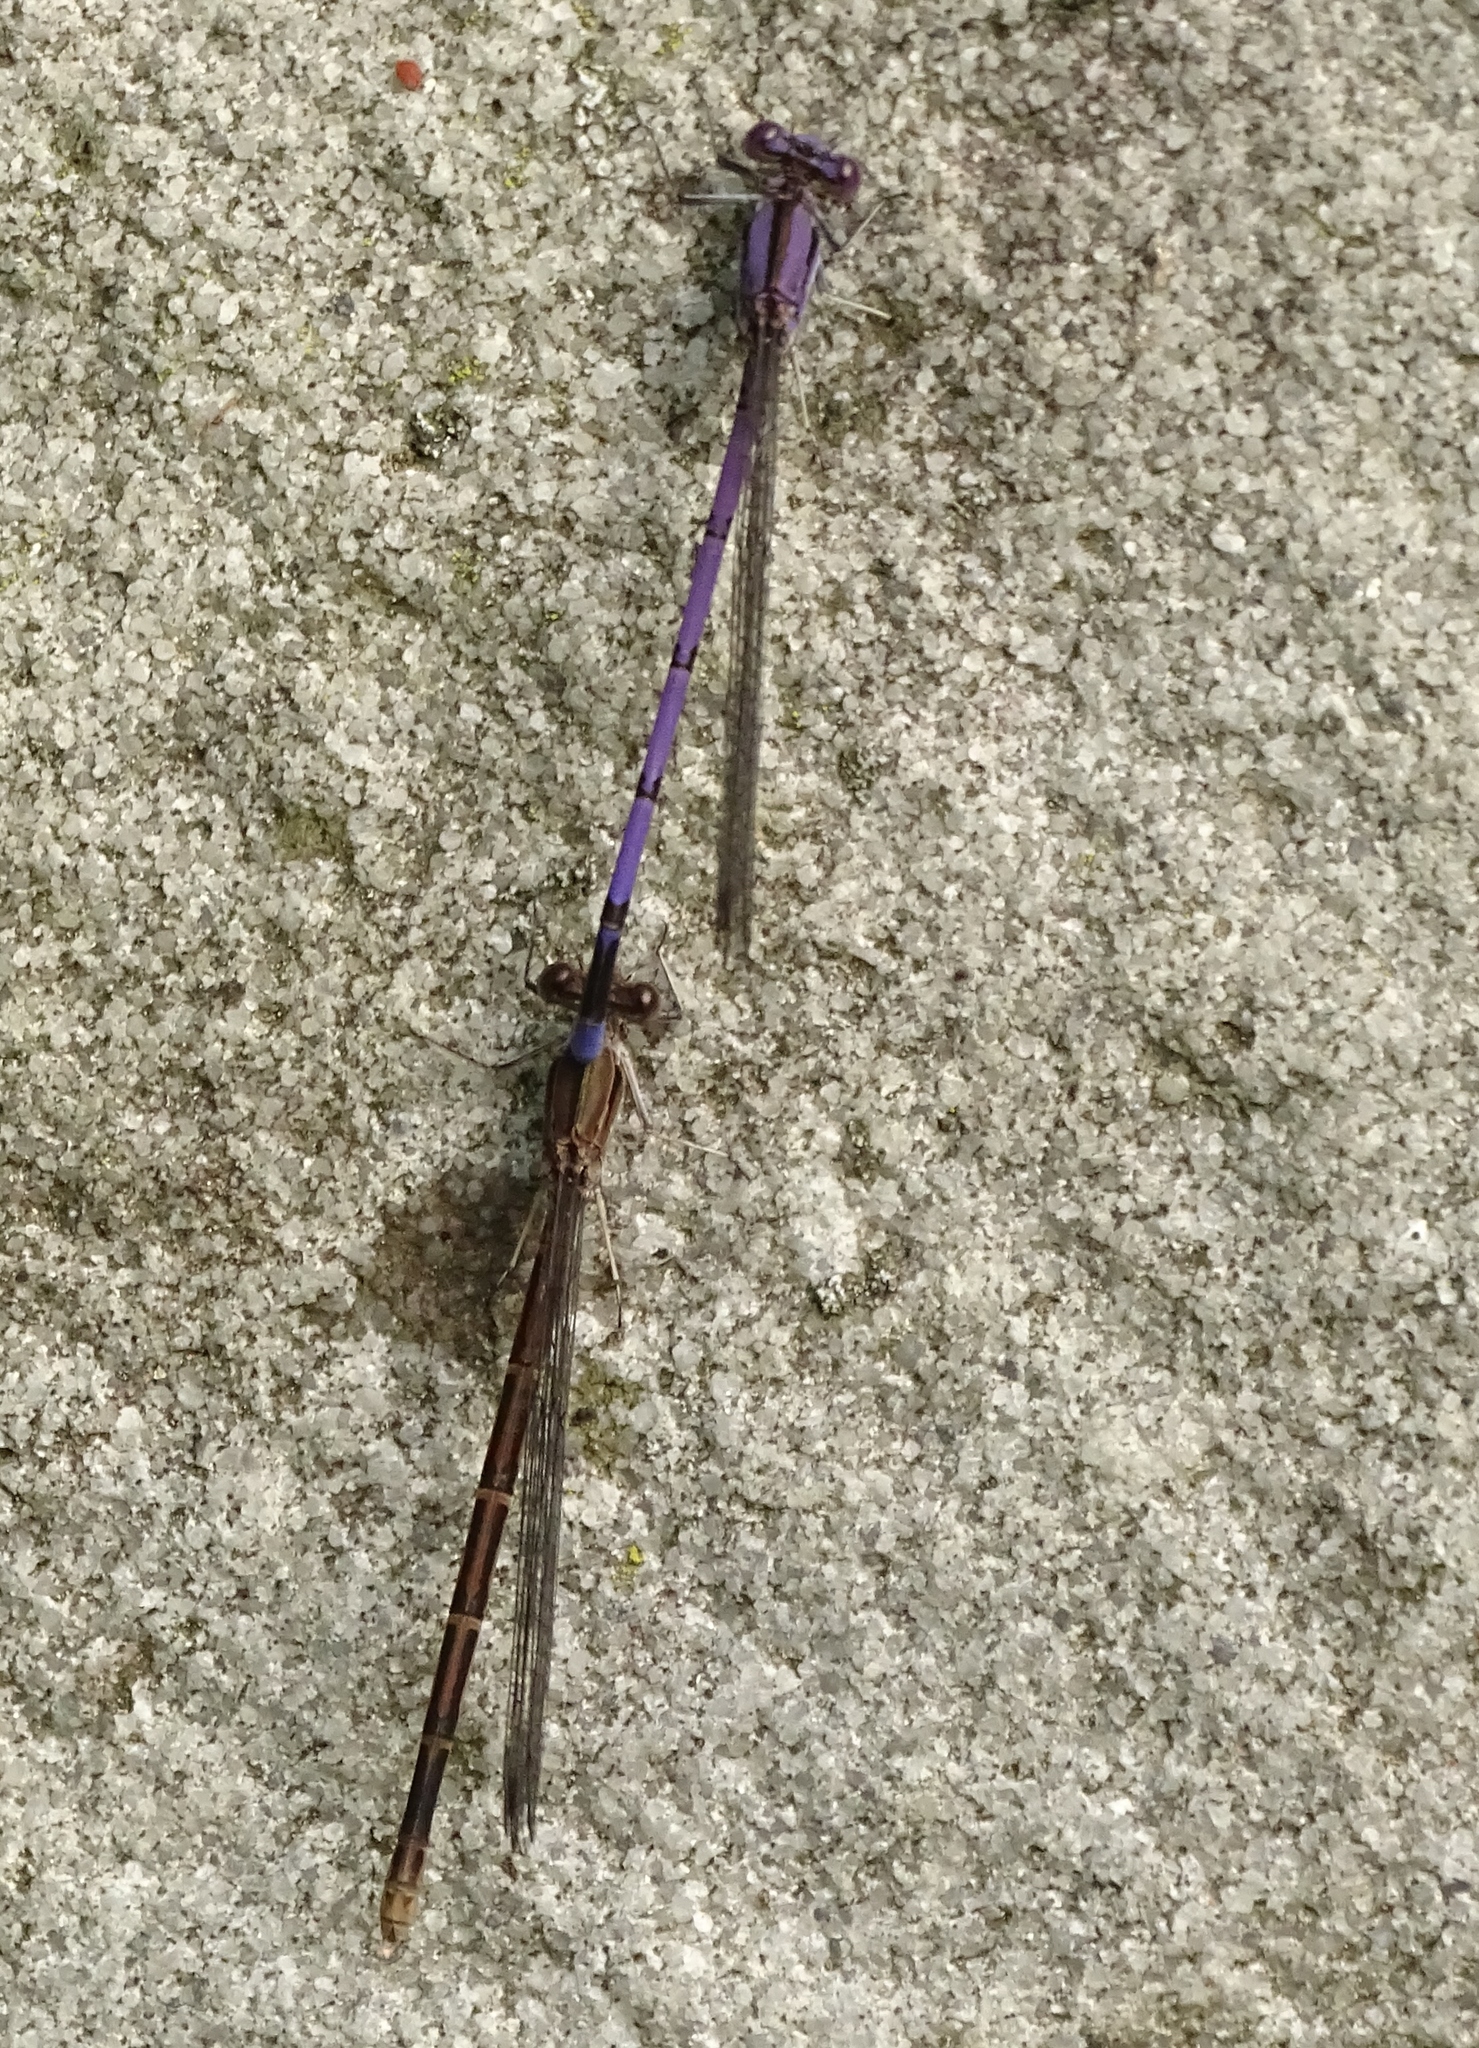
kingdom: Animalia
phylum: Arthropoda
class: Insecta
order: Odonata
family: Coenagrionidae
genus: Argia
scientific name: Argia fumipennis
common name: Variable dancer
